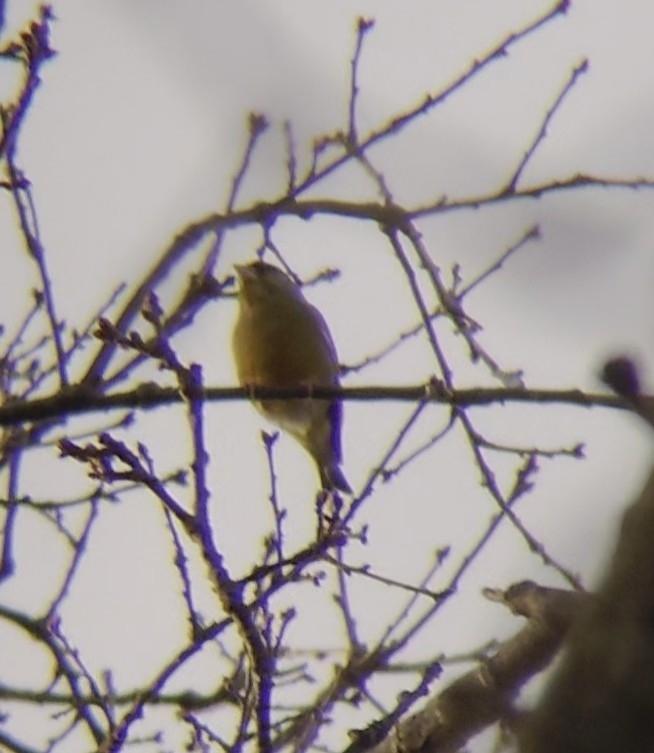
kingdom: Plantae
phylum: Tracheophyta
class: Liliopsida
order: Poales
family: Poaceae
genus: Chloris
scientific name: Chloris chloris
